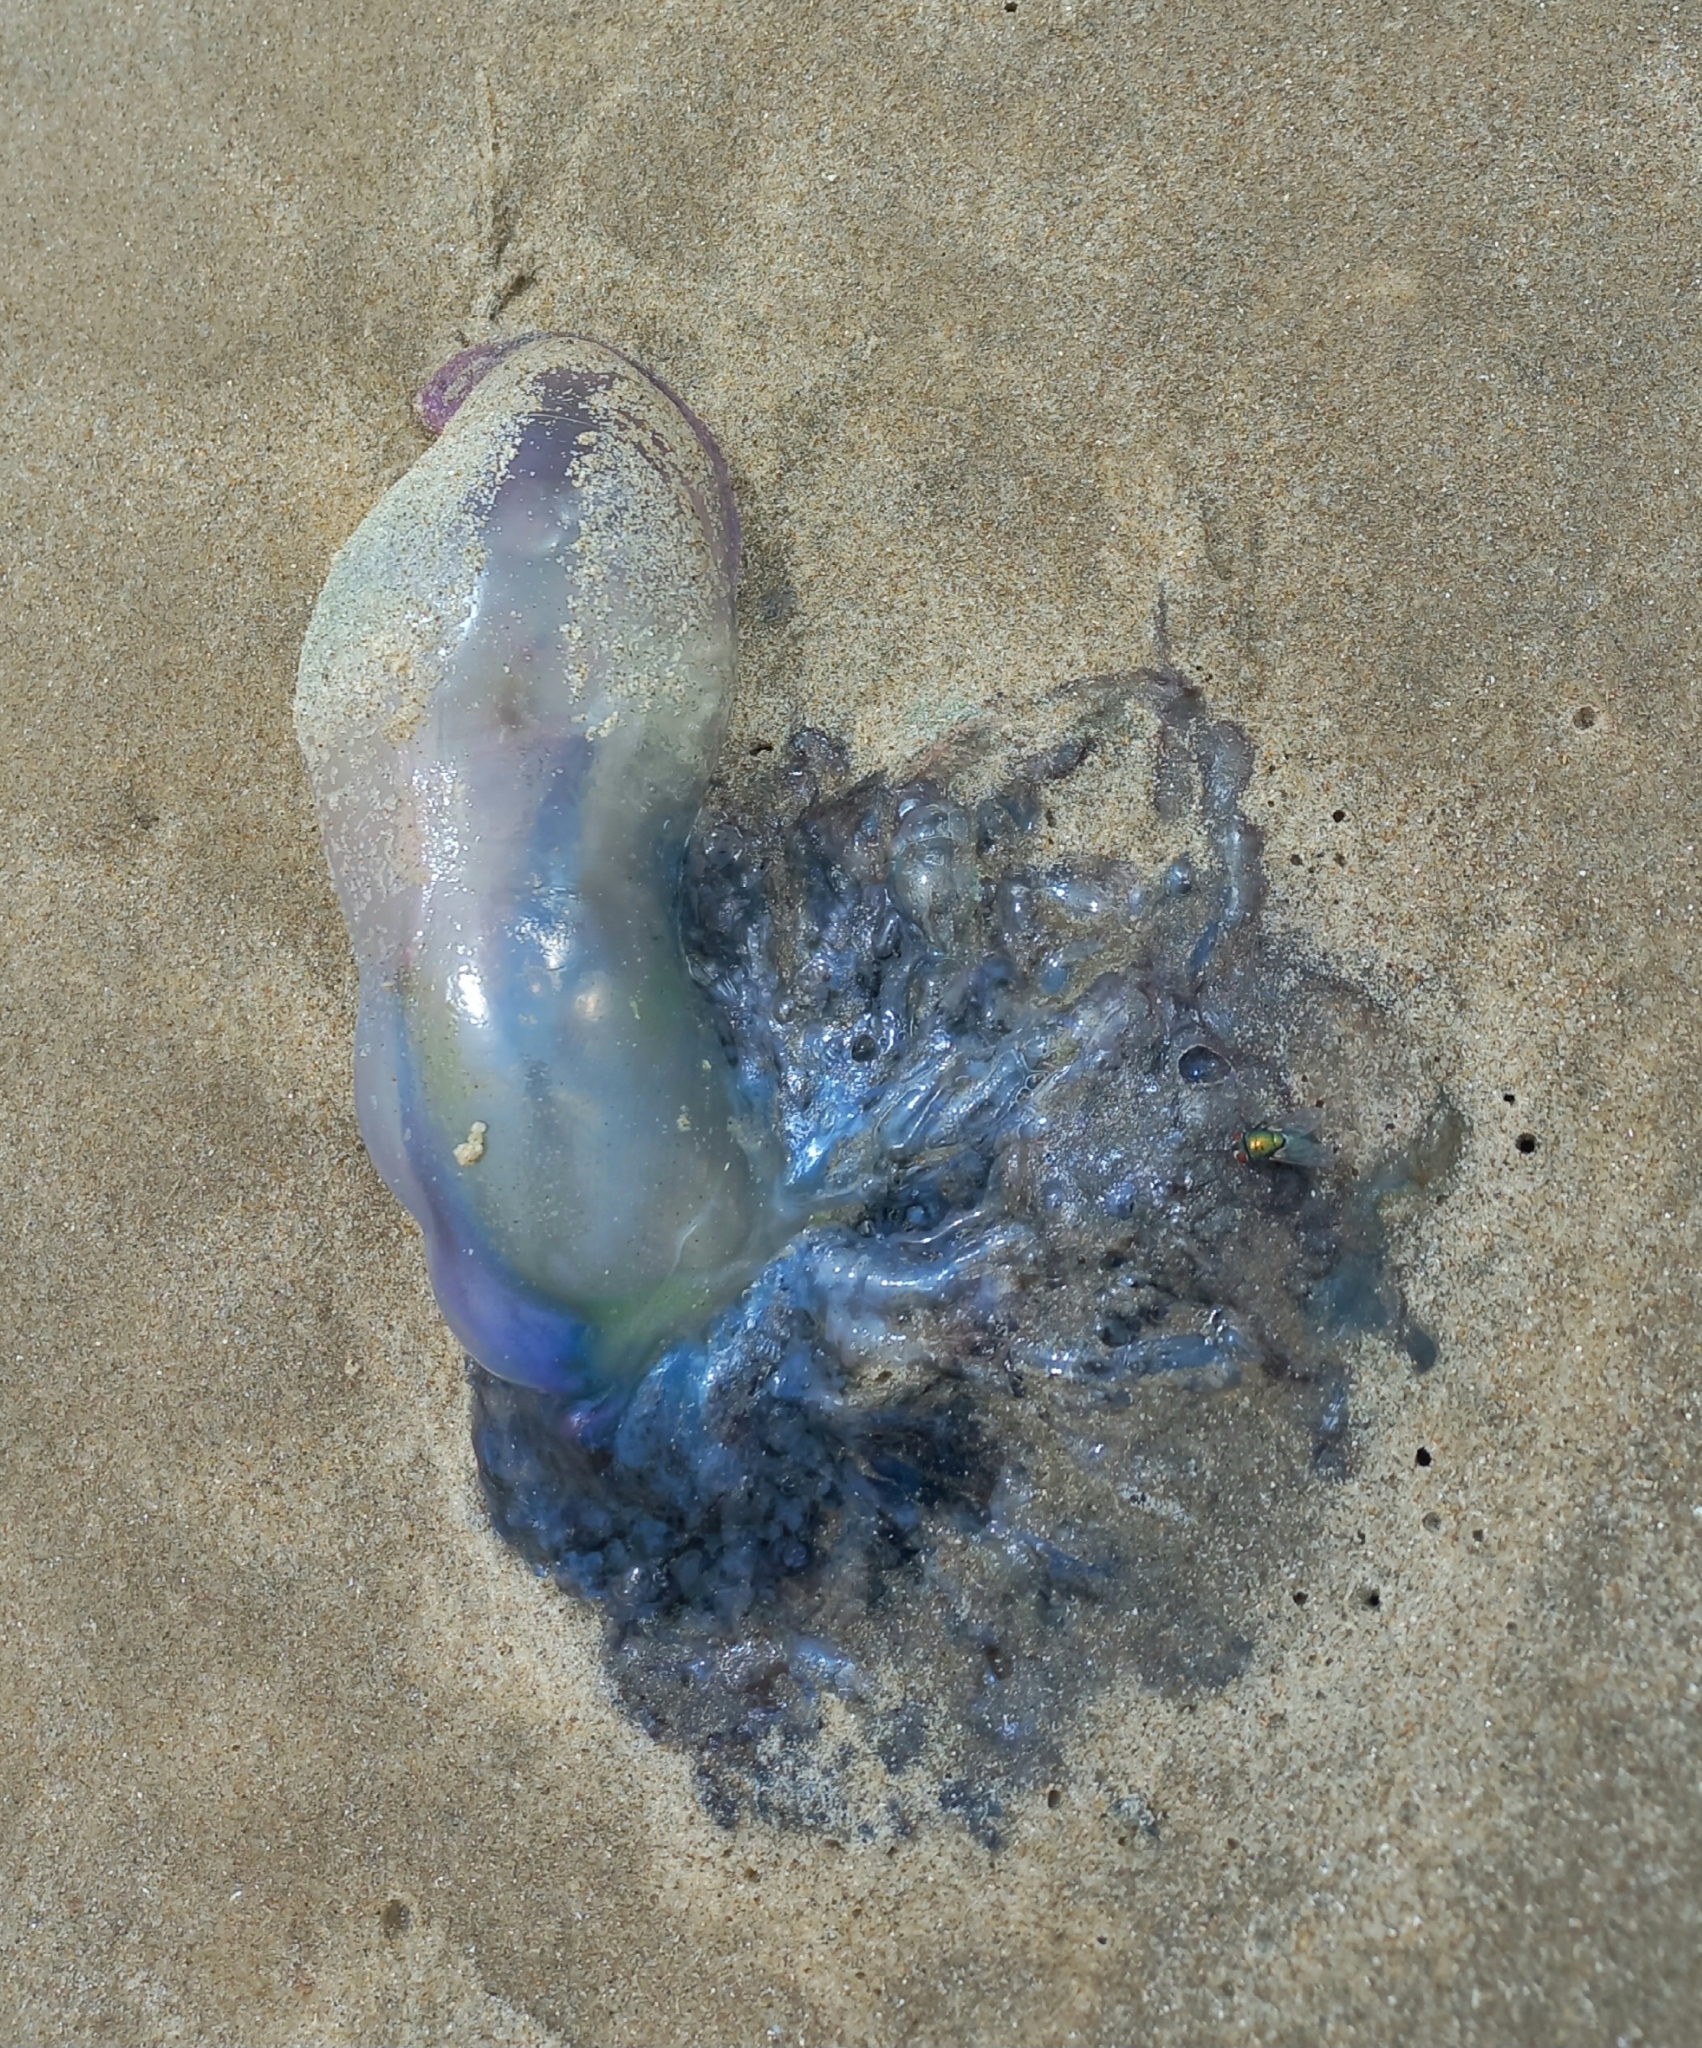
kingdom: Animalia
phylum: Cnidaria
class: Hydrozoa
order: Siphonophorae
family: Physaliidae
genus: Physalia
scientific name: Physalia physalis
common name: Portuguese man-of-war
